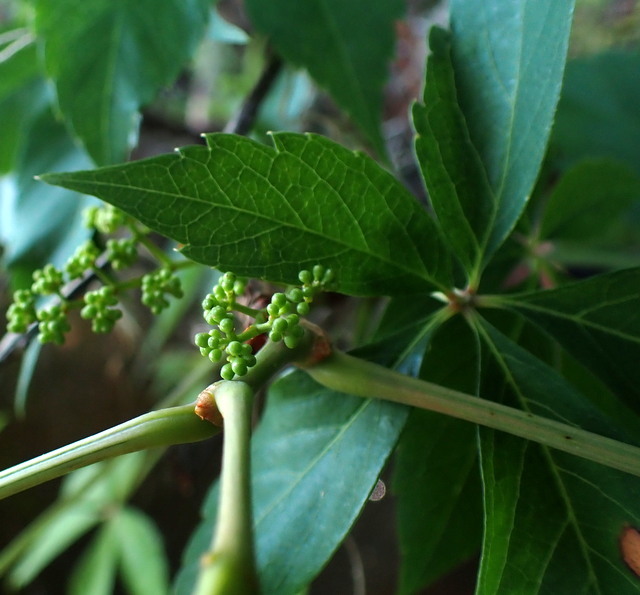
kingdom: Plantae
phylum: Tracheophyta
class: Magnoliopsida
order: Vitales
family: Vitaceae
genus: Parthenocissus
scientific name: Parthenocissus quinquefolia
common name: Virginia-creeper
